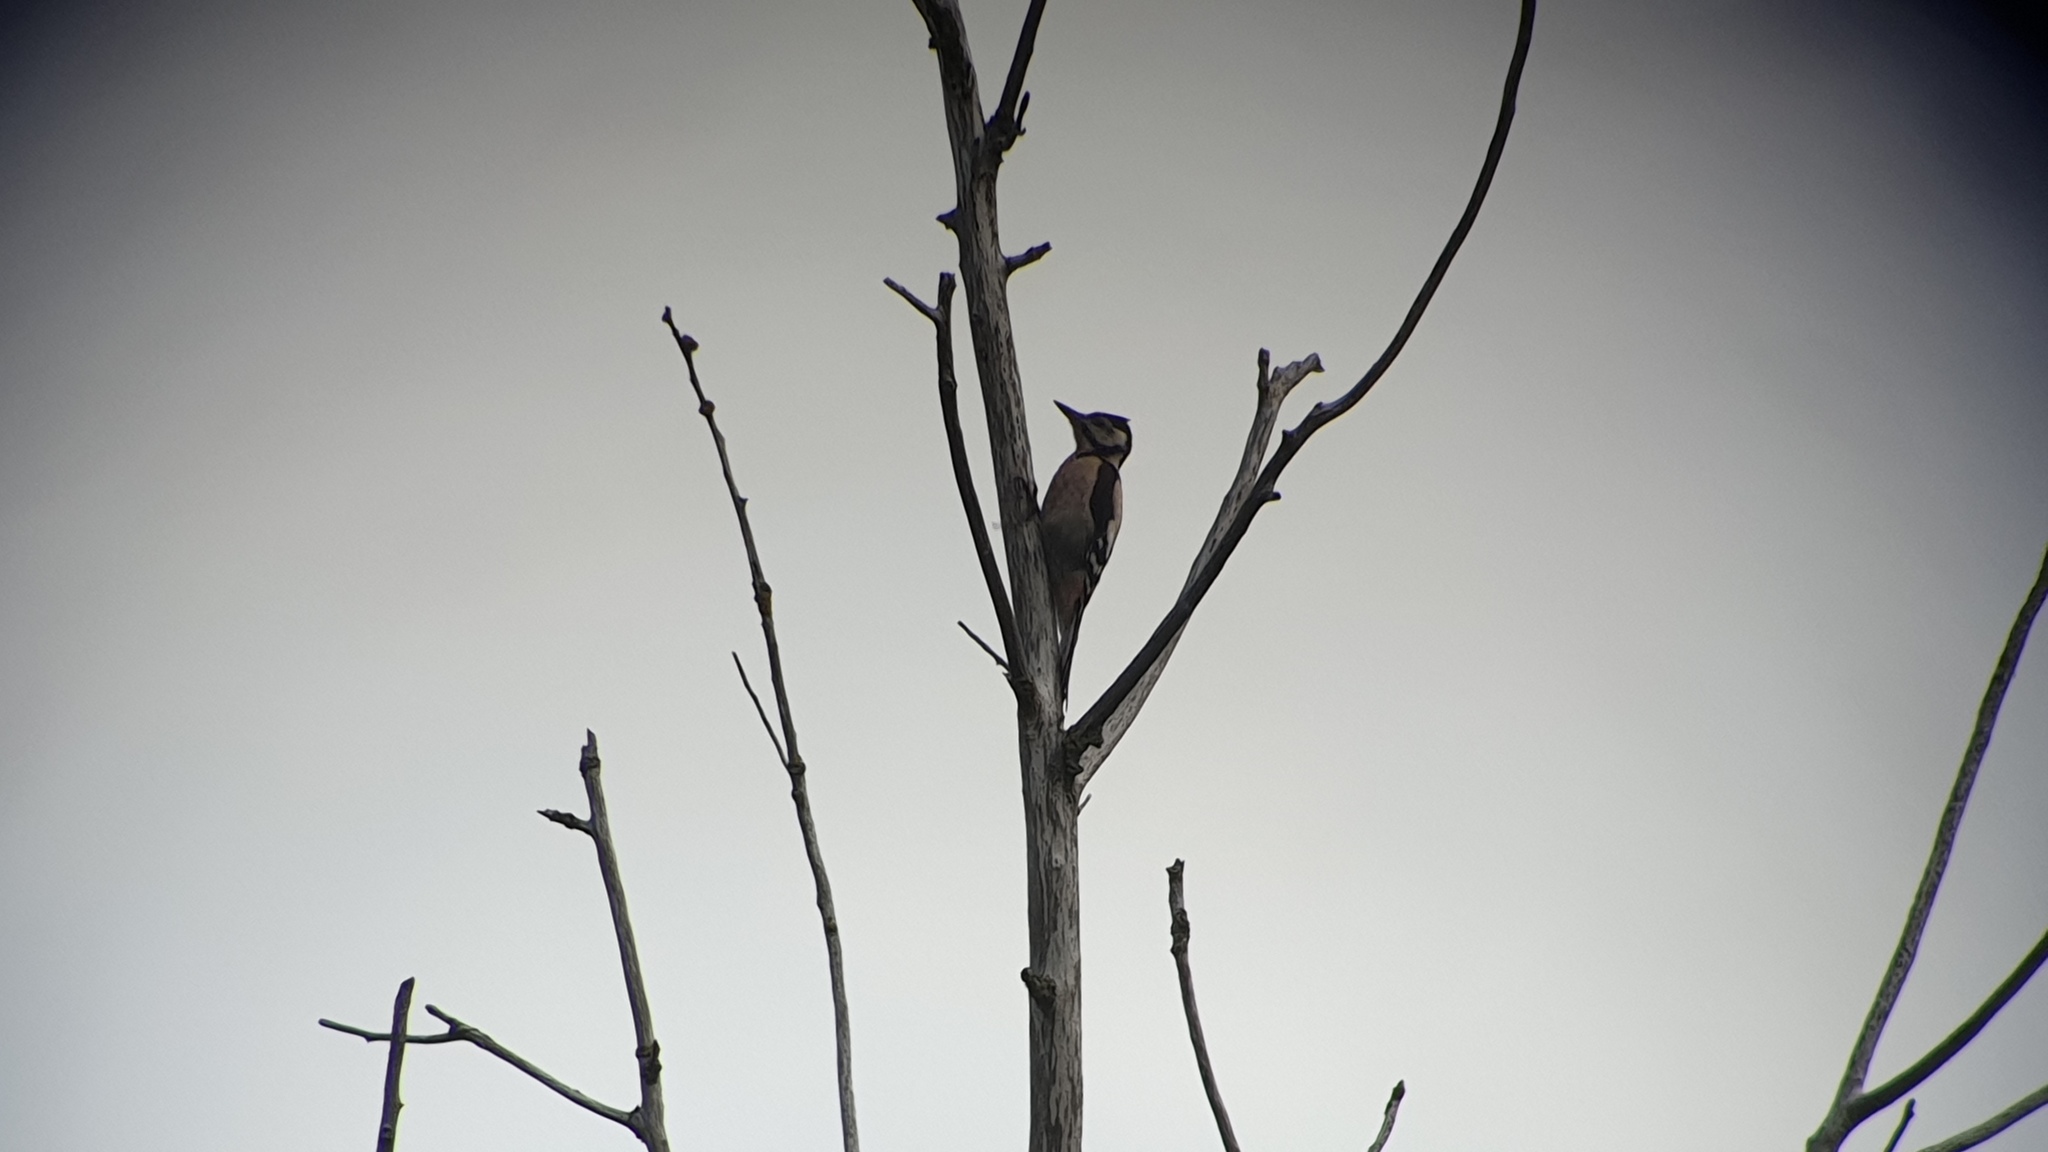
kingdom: Animalia
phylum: Chordata
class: Aves
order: Piciformes
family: Picidae
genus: Dendrocopos
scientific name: Dendrocopos major
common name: Great spotted woodpecker
